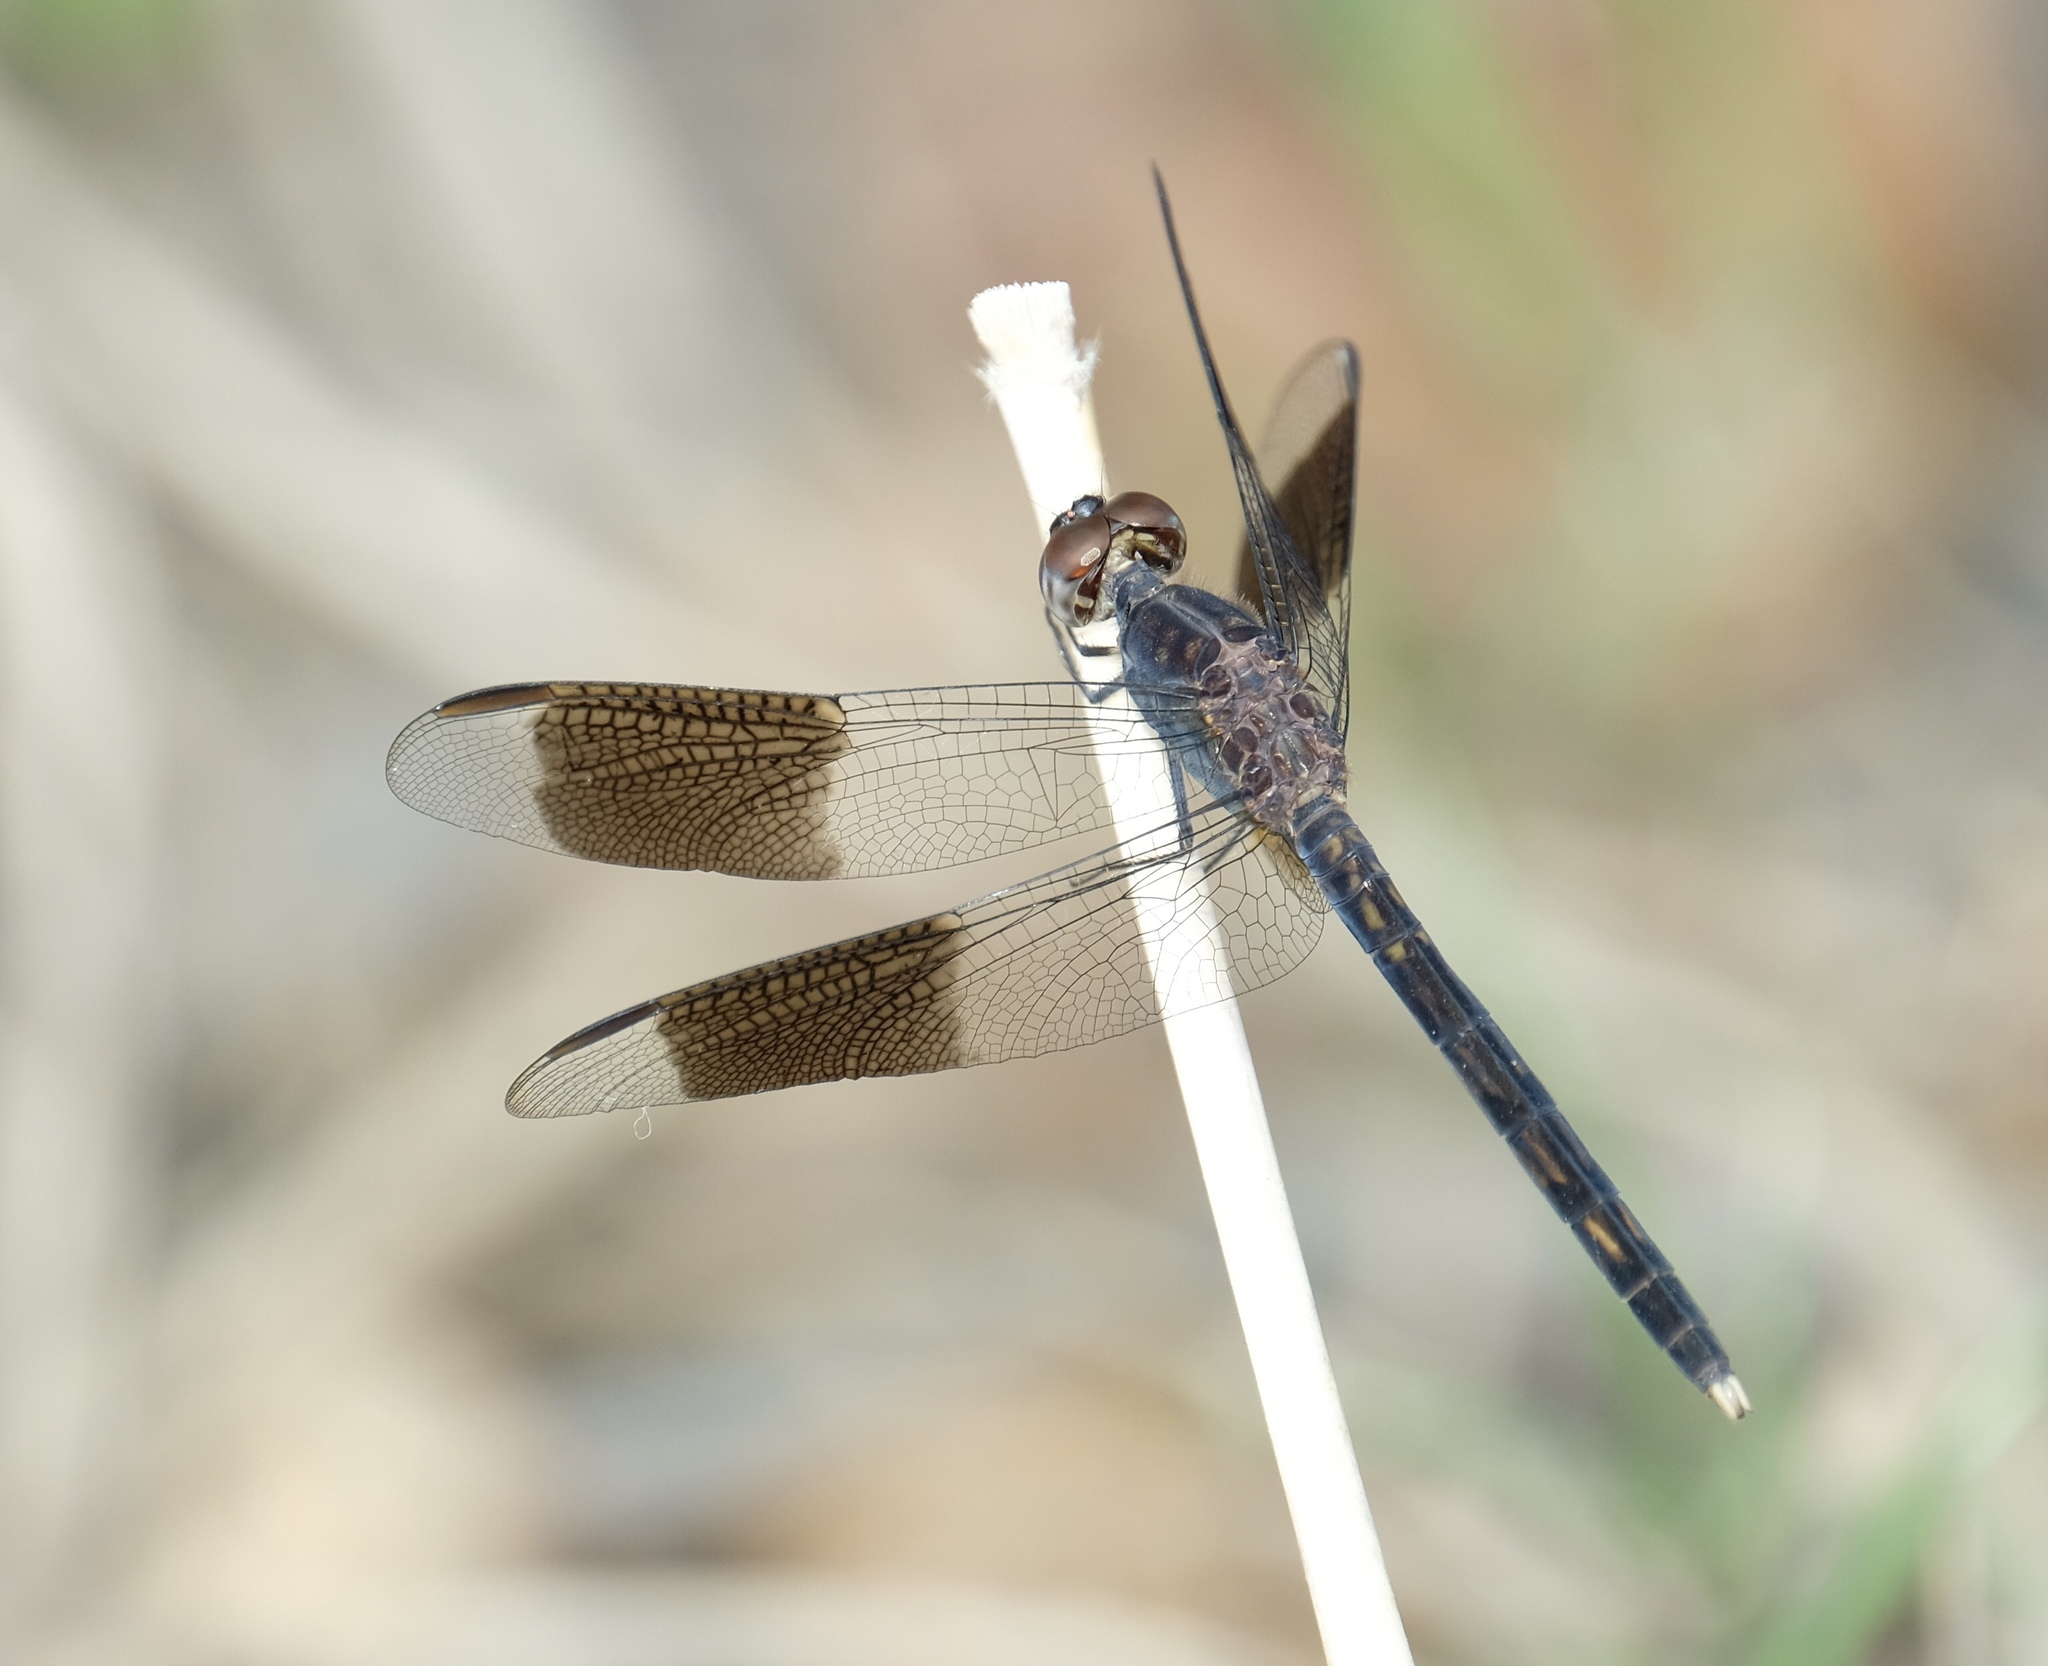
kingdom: Animalia
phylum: Arthropoda
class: Insecta
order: Odonata
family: Libellulidae
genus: Erythrodiplax
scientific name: Erythrodiplax umbrata
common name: Band-winged dragonlet
